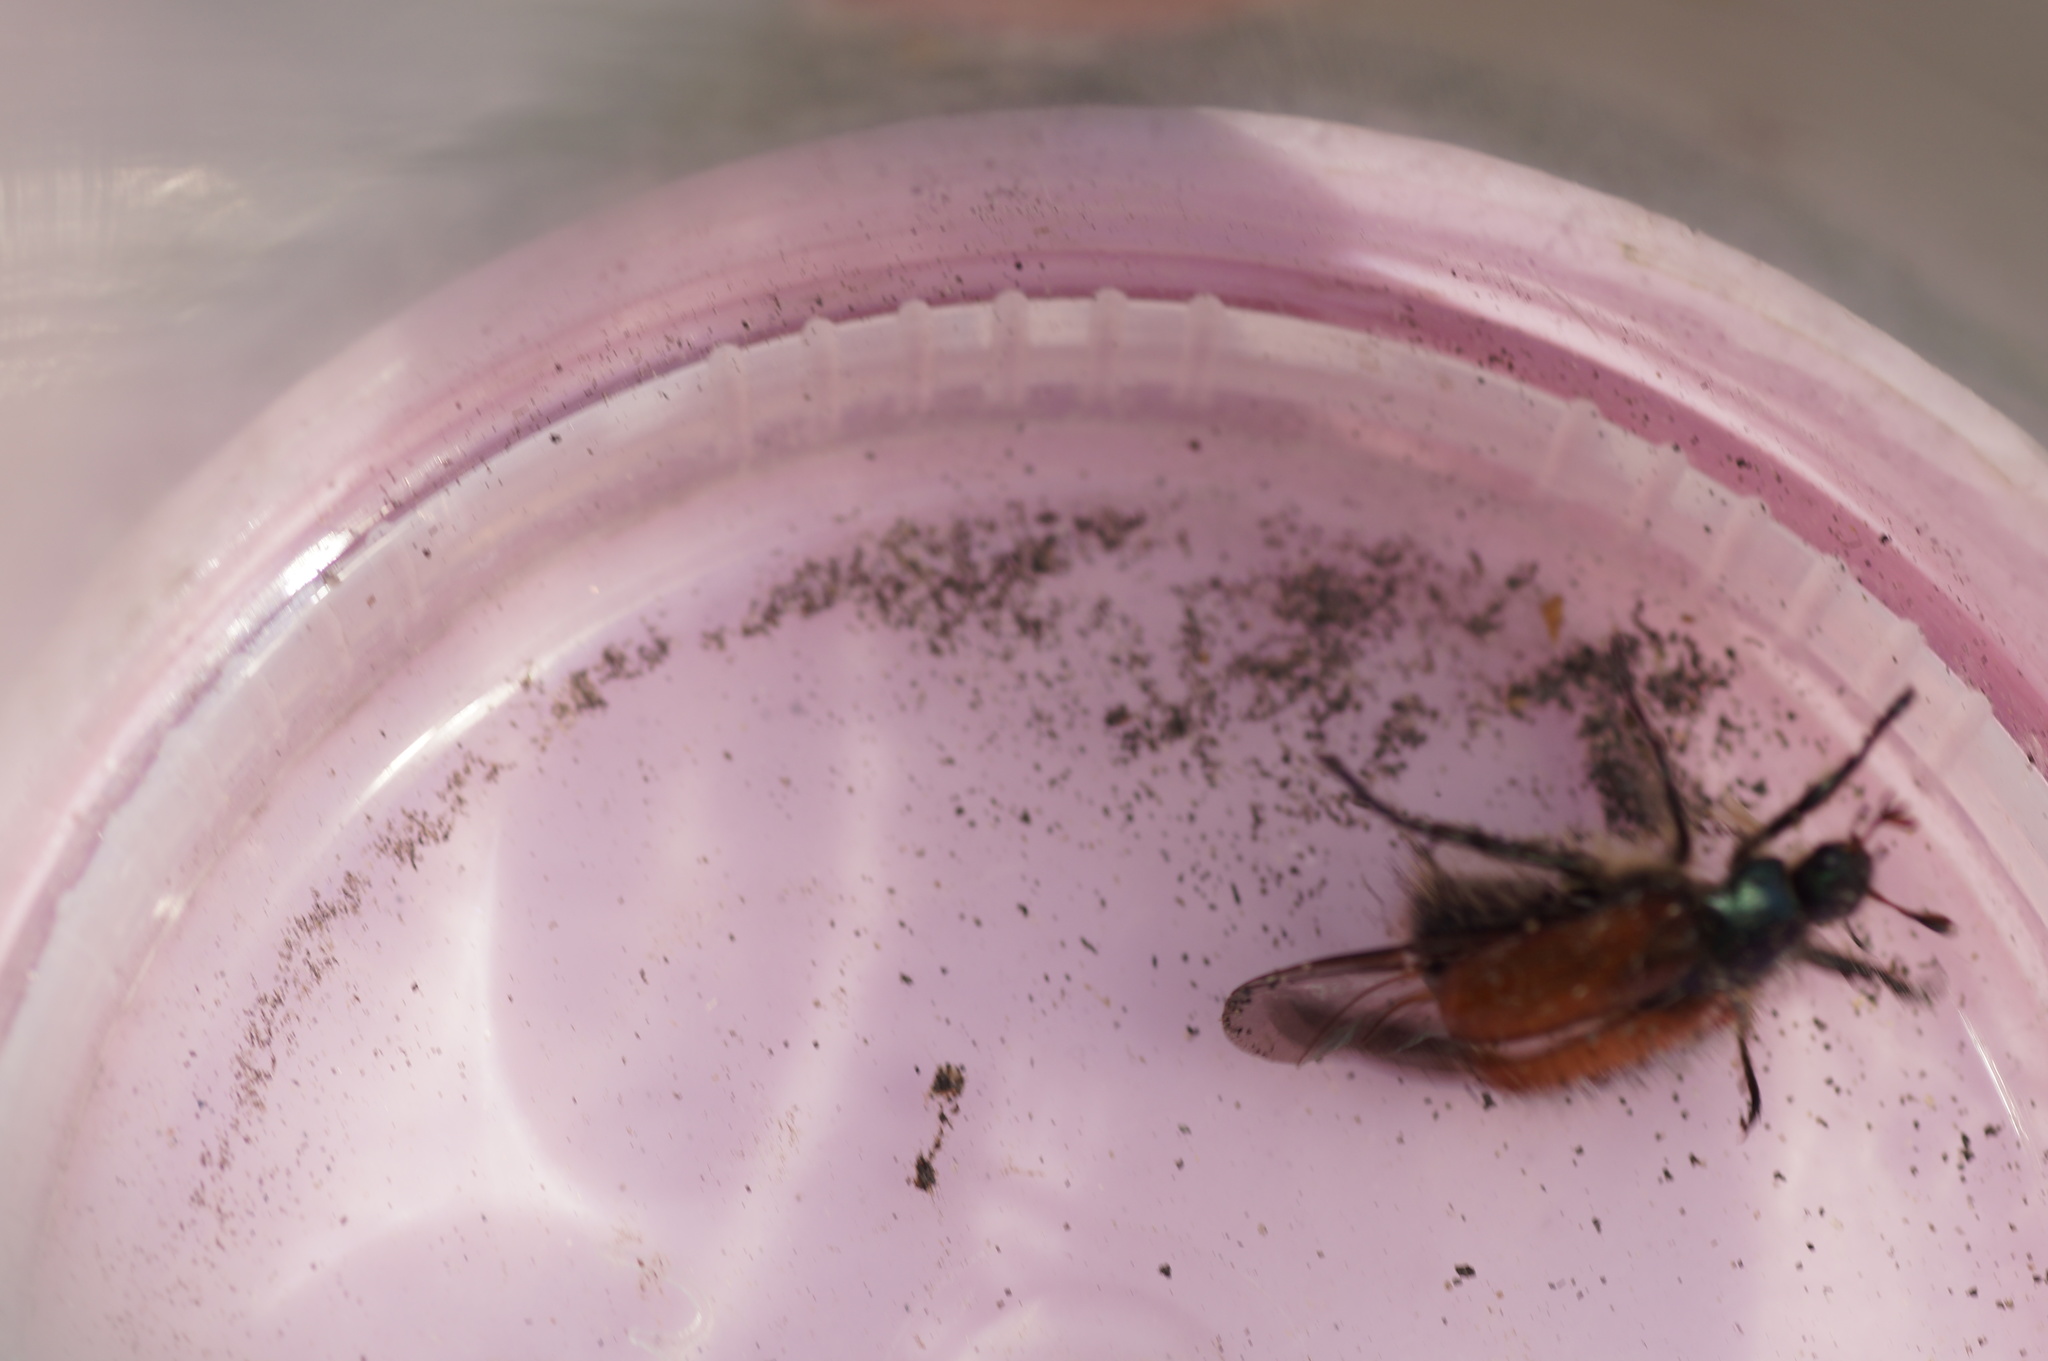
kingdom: Animalia
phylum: Arthropoda
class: Insecta
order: Coleoptera
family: Scarabaeidae
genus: Phyllopertha
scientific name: Phyllopertha horticola
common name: Garden chafer
